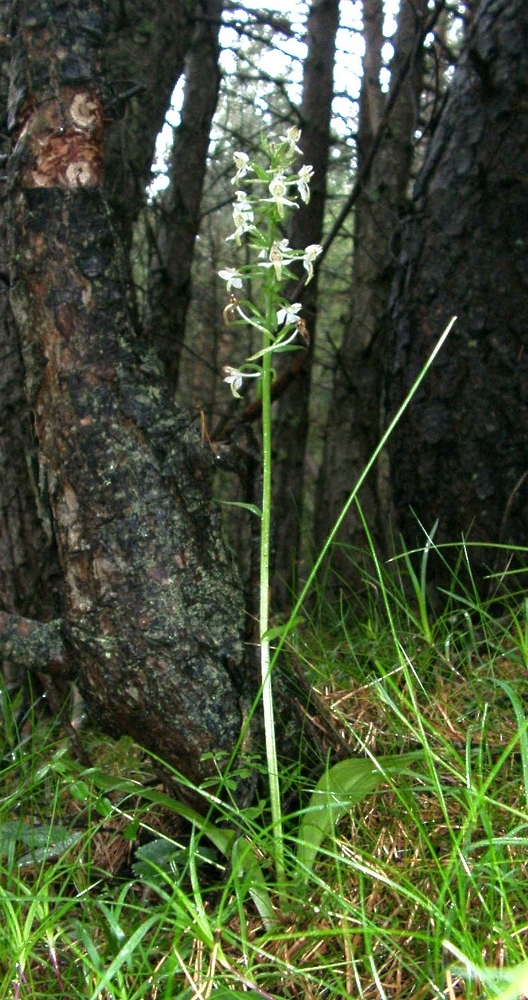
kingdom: Plantae
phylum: Tracheophyta
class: Liliopsida
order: Asparagales
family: Orchidaceae
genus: Platanthera
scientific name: Platanthera chlorantha
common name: Greater butterfly-orchid
